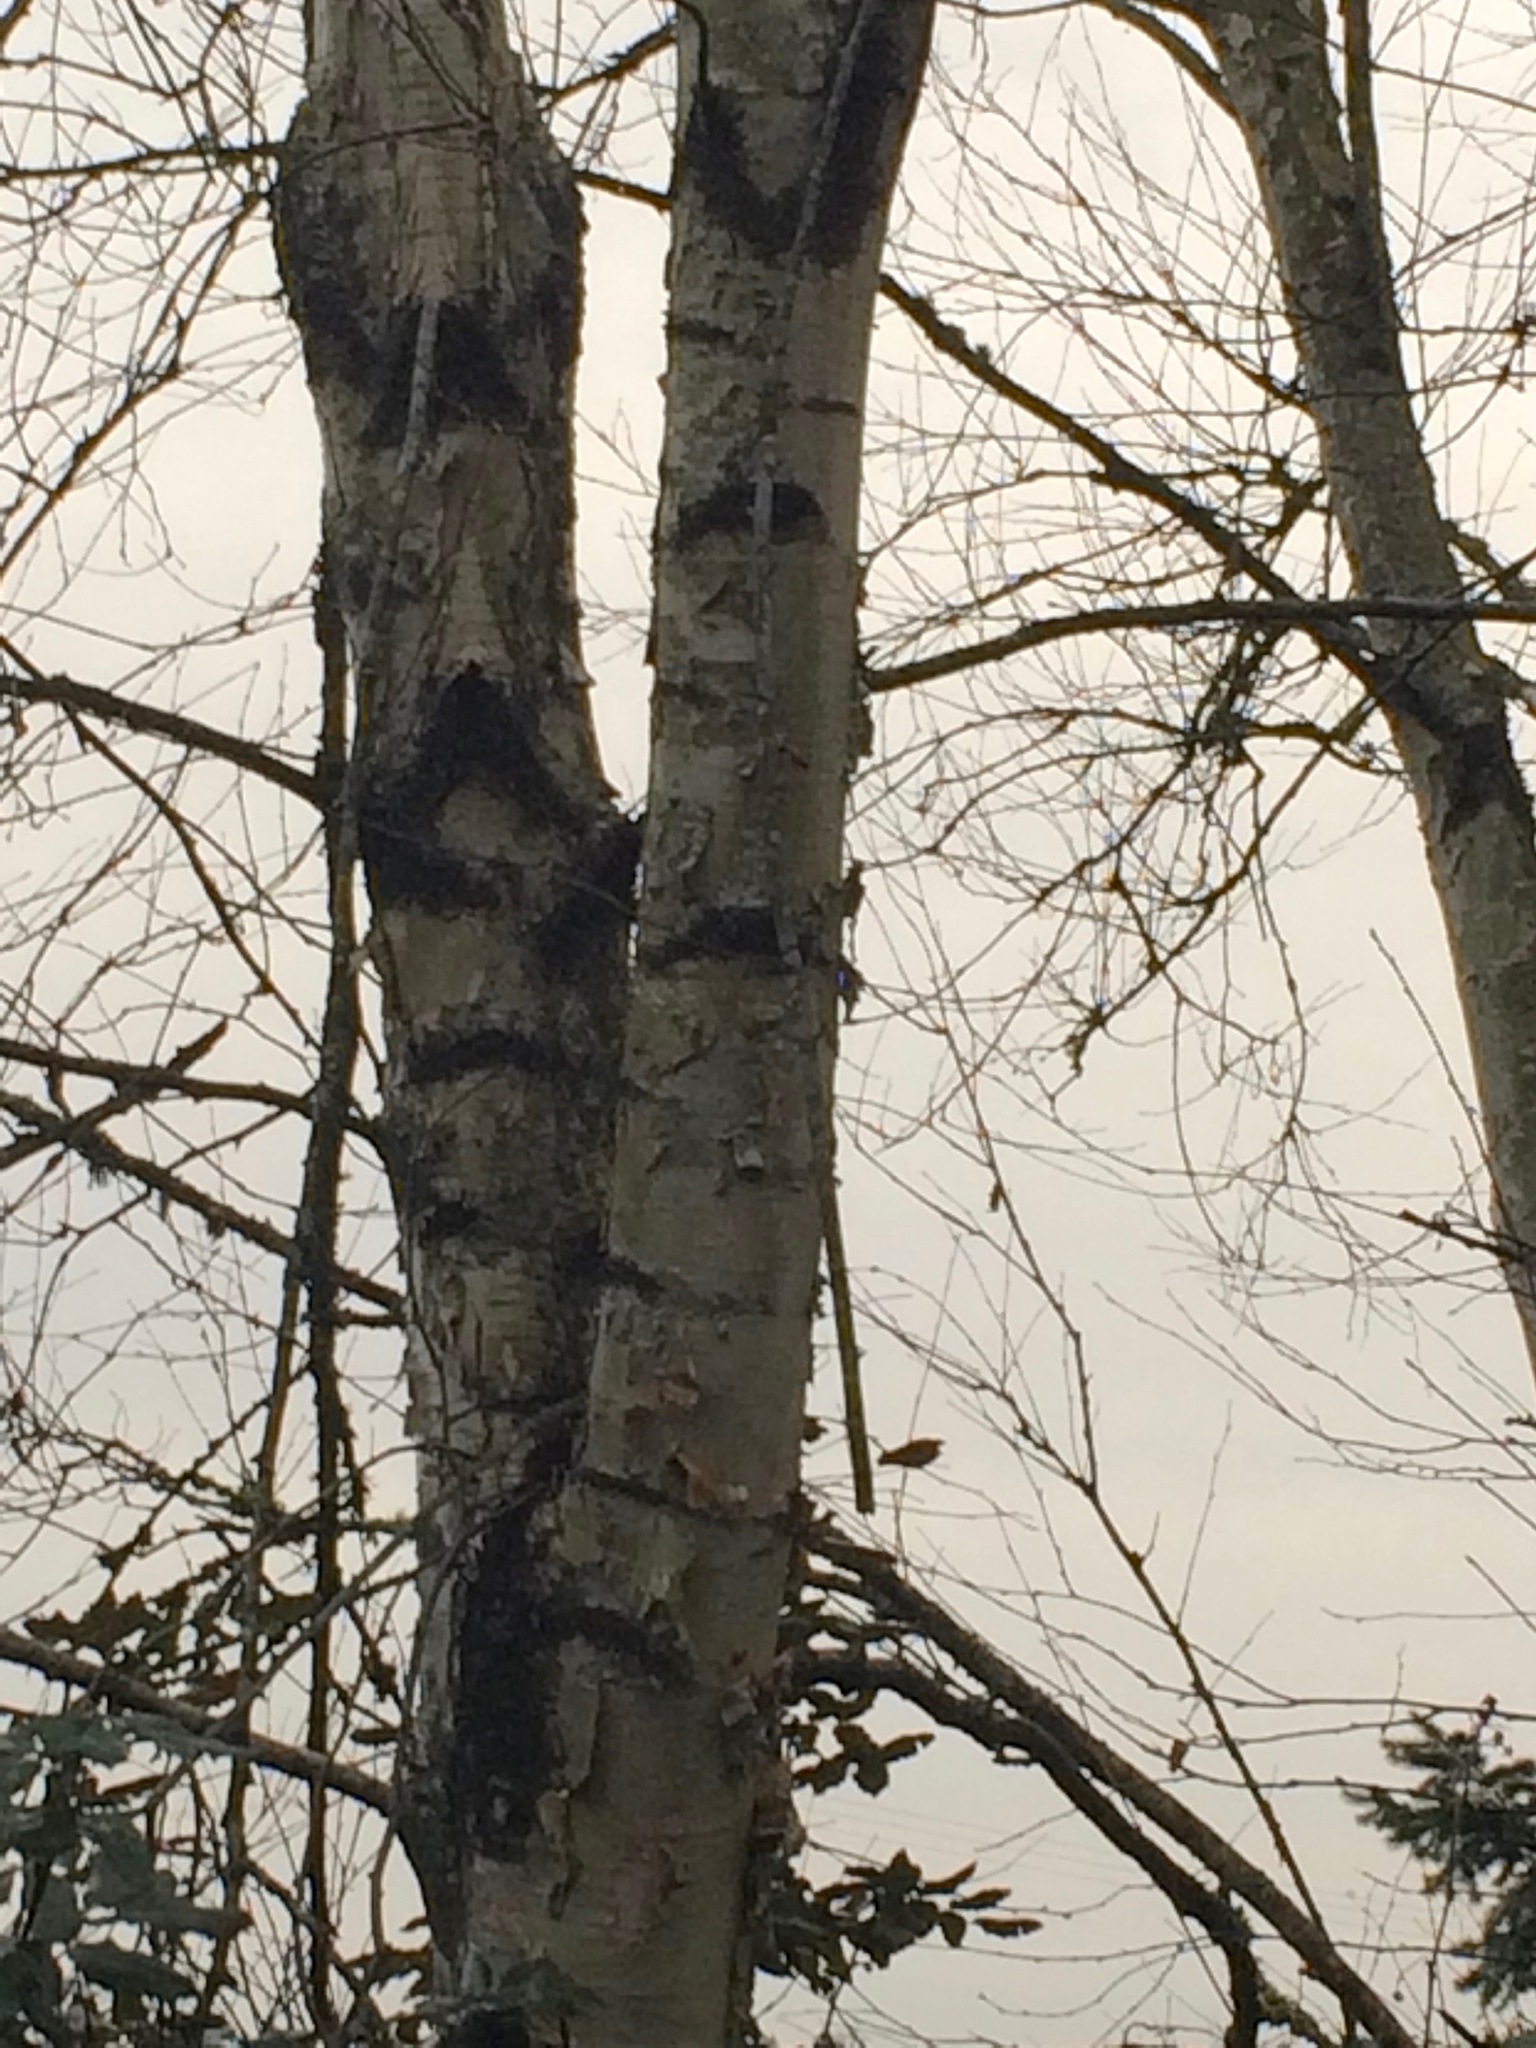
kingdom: Plantae
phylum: Tracheophyta
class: Magnoliopsida
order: Fagales
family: Betulaceae
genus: Betula
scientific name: Betula papyrifera
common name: Paper birch
